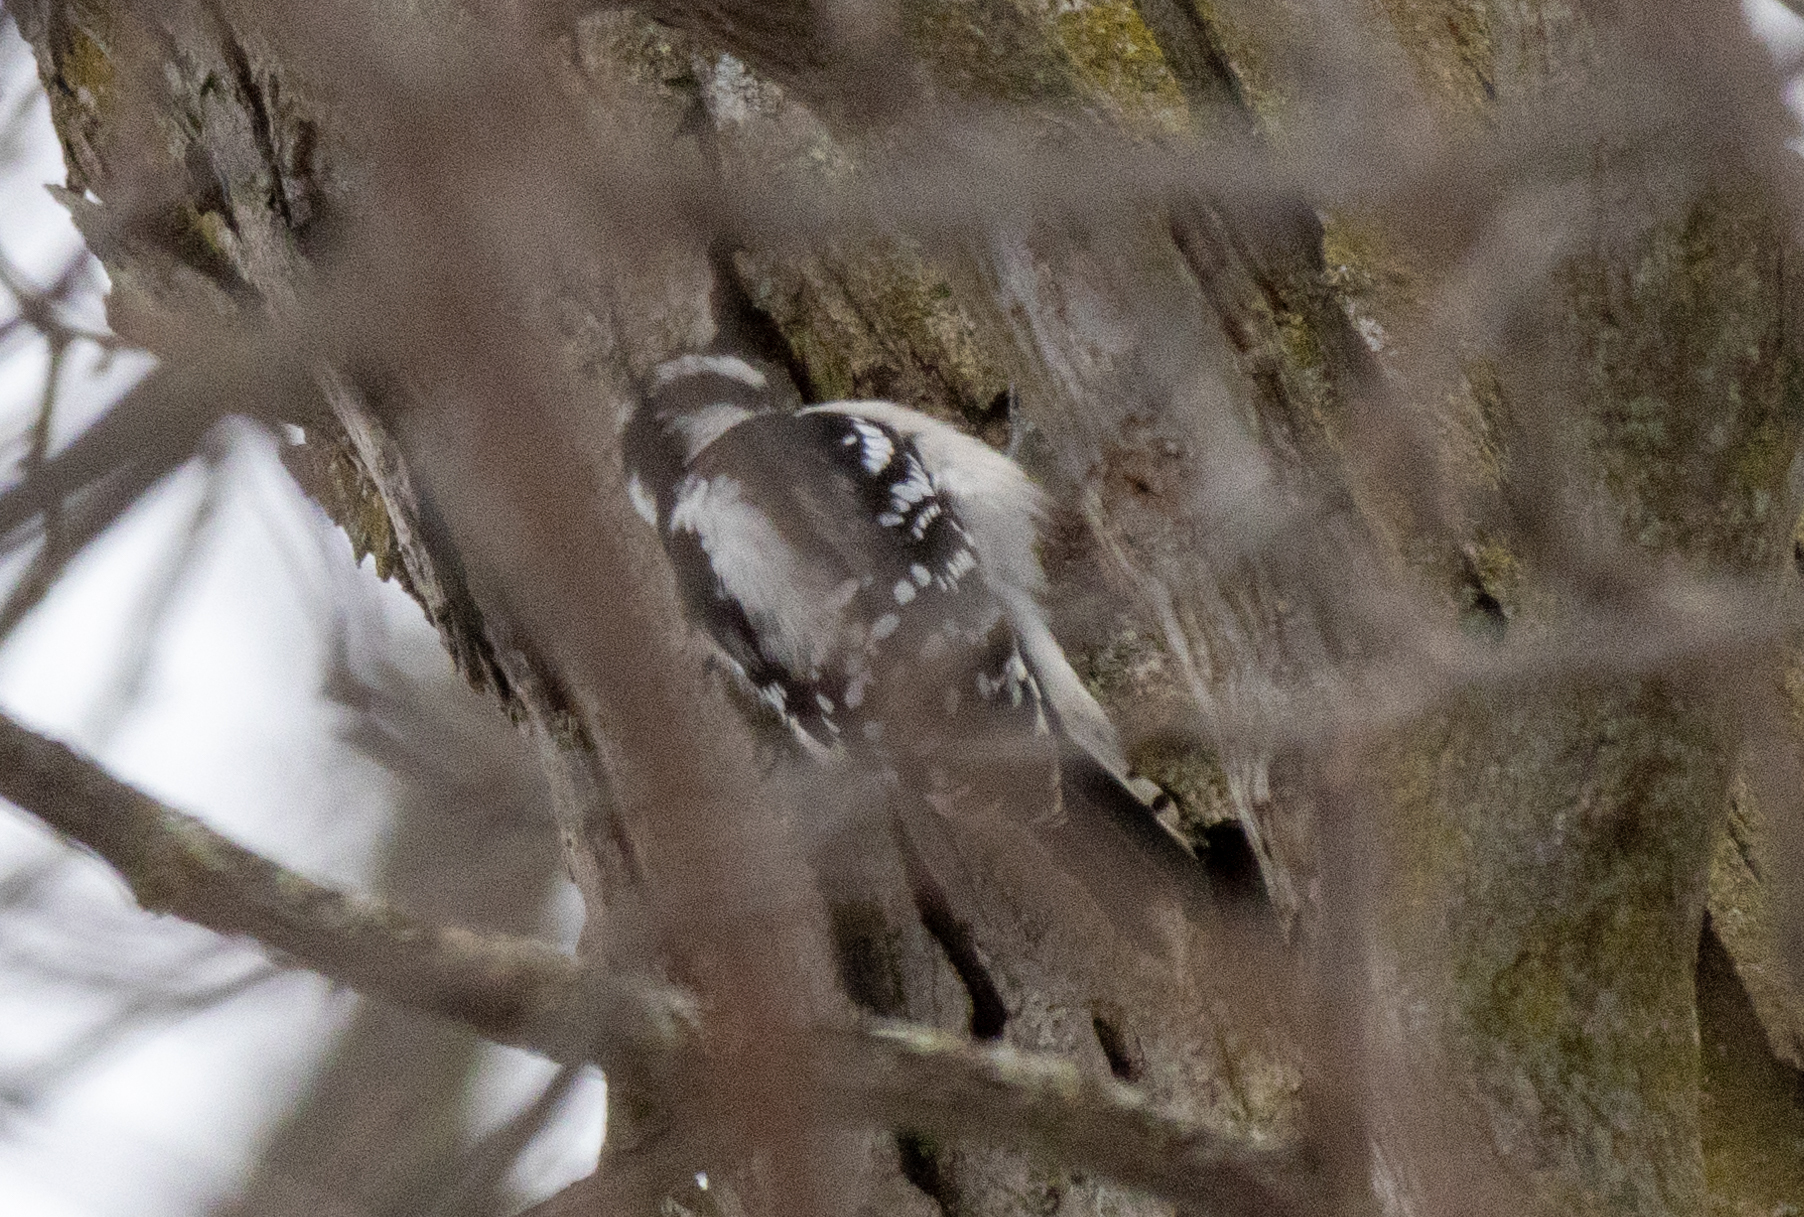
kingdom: Animalia
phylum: Chordata
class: Aves
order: Piciformes
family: Picidae
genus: Dryobates
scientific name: Dryobates pubescens
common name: Downy woodpecker
